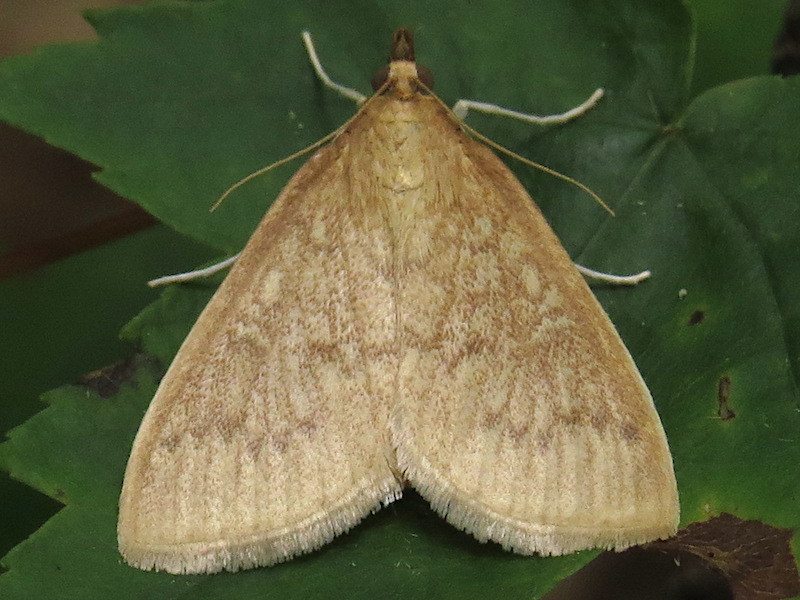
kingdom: Animalia
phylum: Arthropoda
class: Insecta
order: Lepidoptera
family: Crambidae
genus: Anania
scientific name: Anania Framinghamia helvalis
